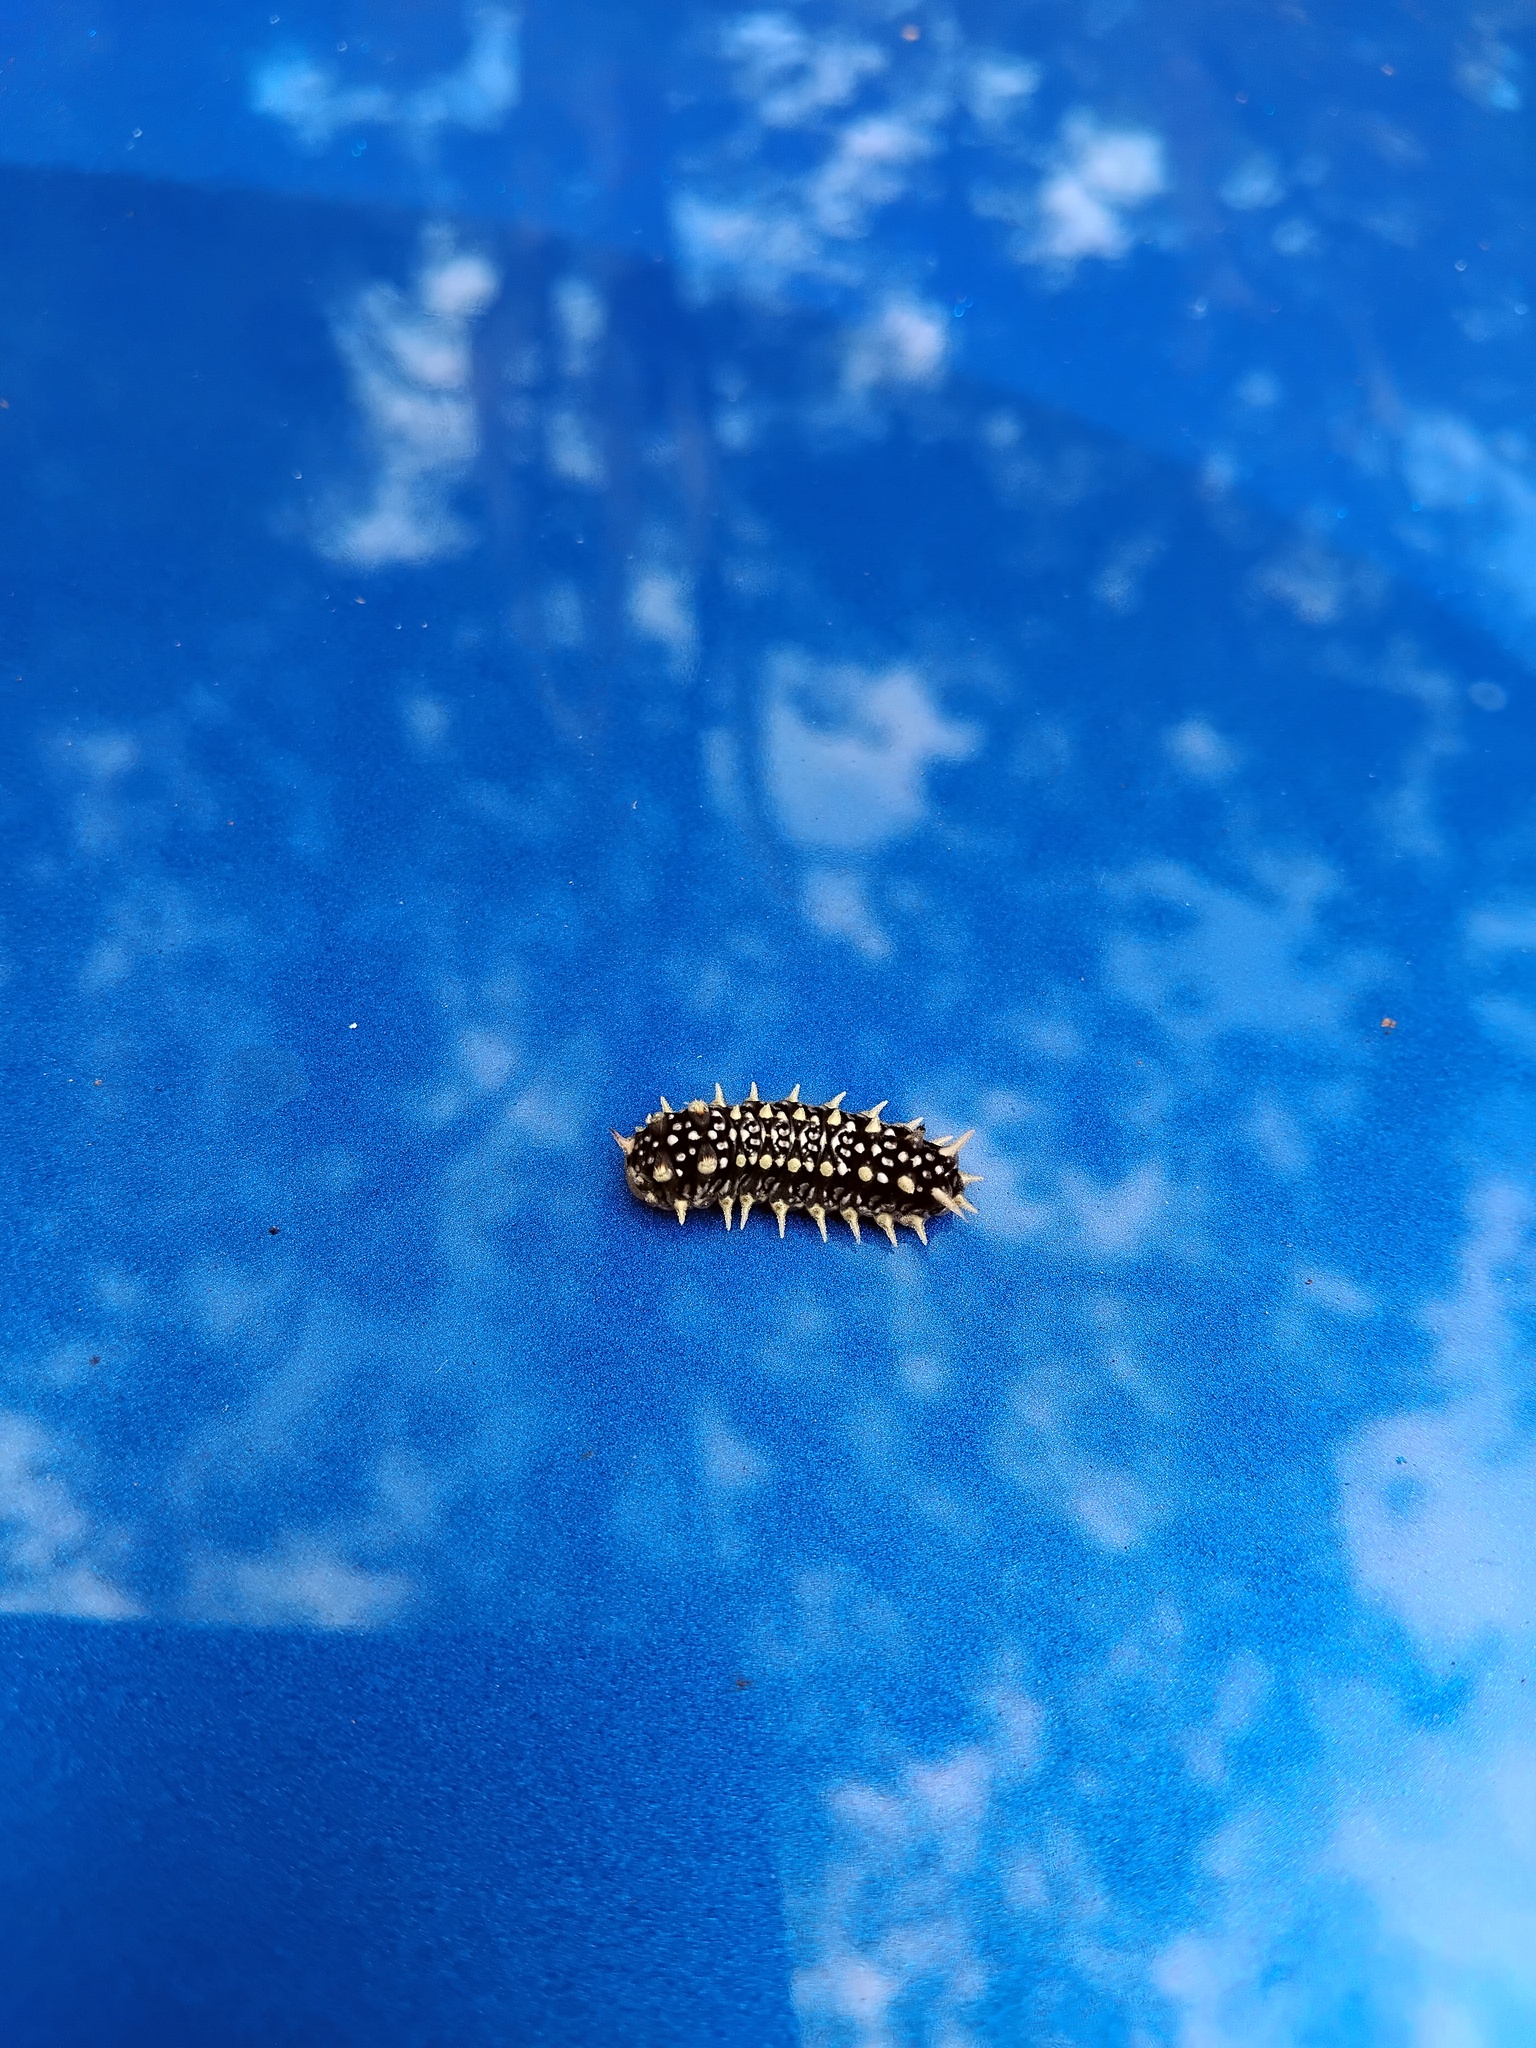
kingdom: Animalia
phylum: Arthropoda
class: Insecta
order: Lepidoptera
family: Limacodidae
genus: Doratifera
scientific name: Doratifera casta
